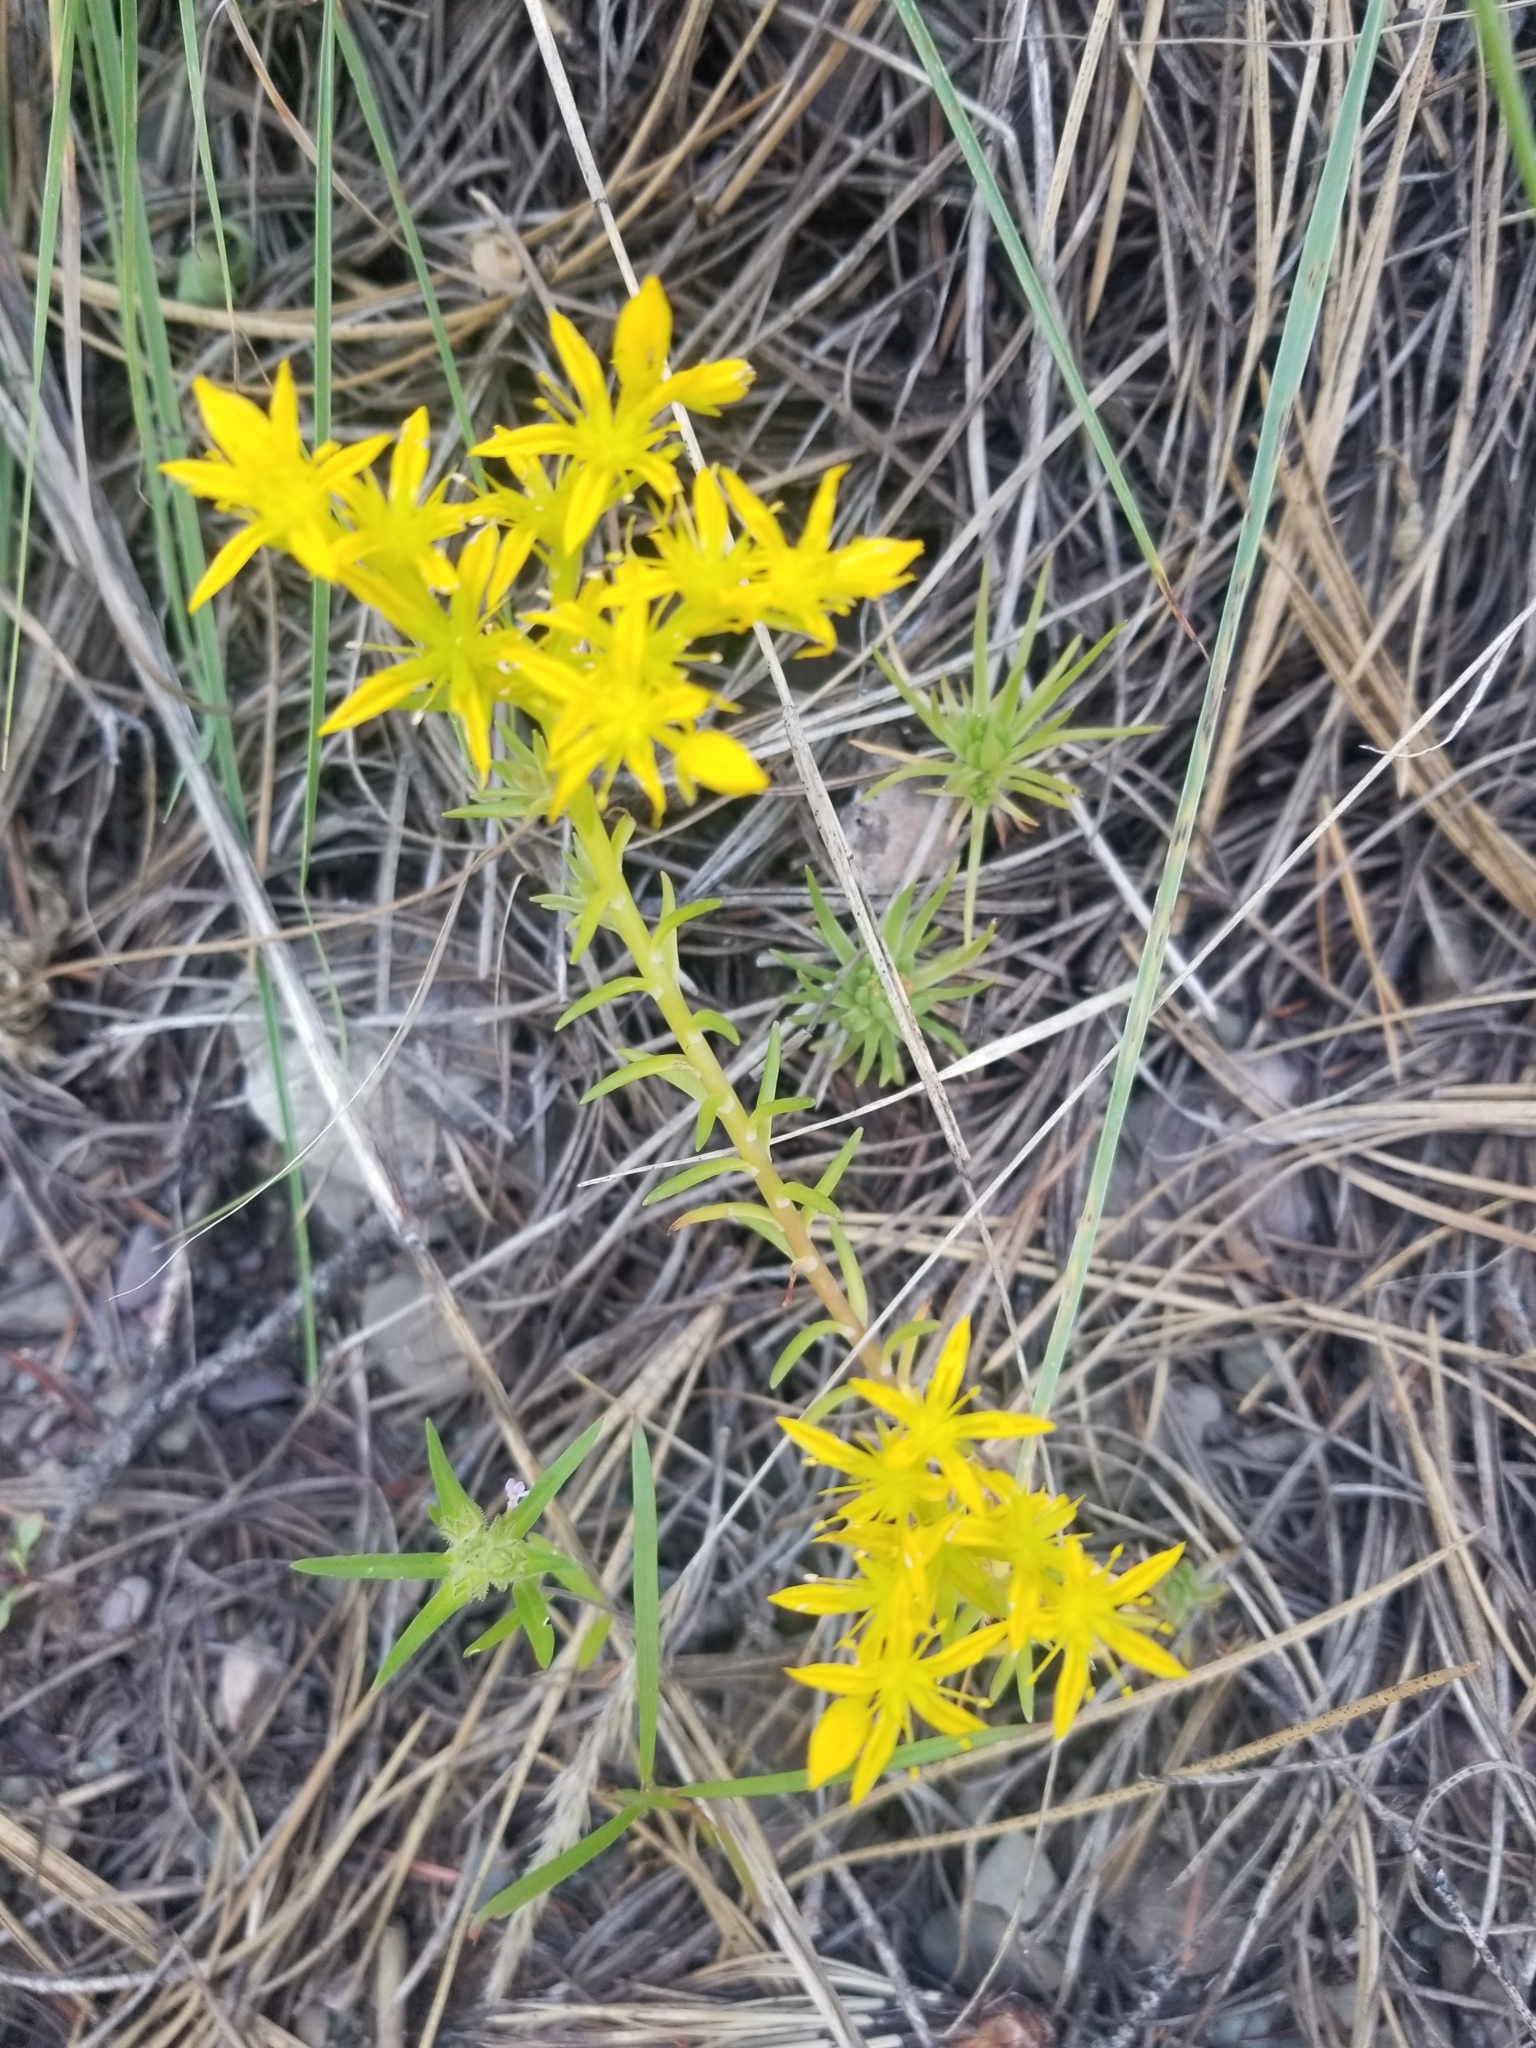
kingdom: Plantae
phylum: Tracheophyta
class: Magnoliopsida
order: Saxifragales
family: Crassulaceae
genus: Sedum
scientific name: Sedum stenopetalum
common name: Narrow-petaled stonecrop
